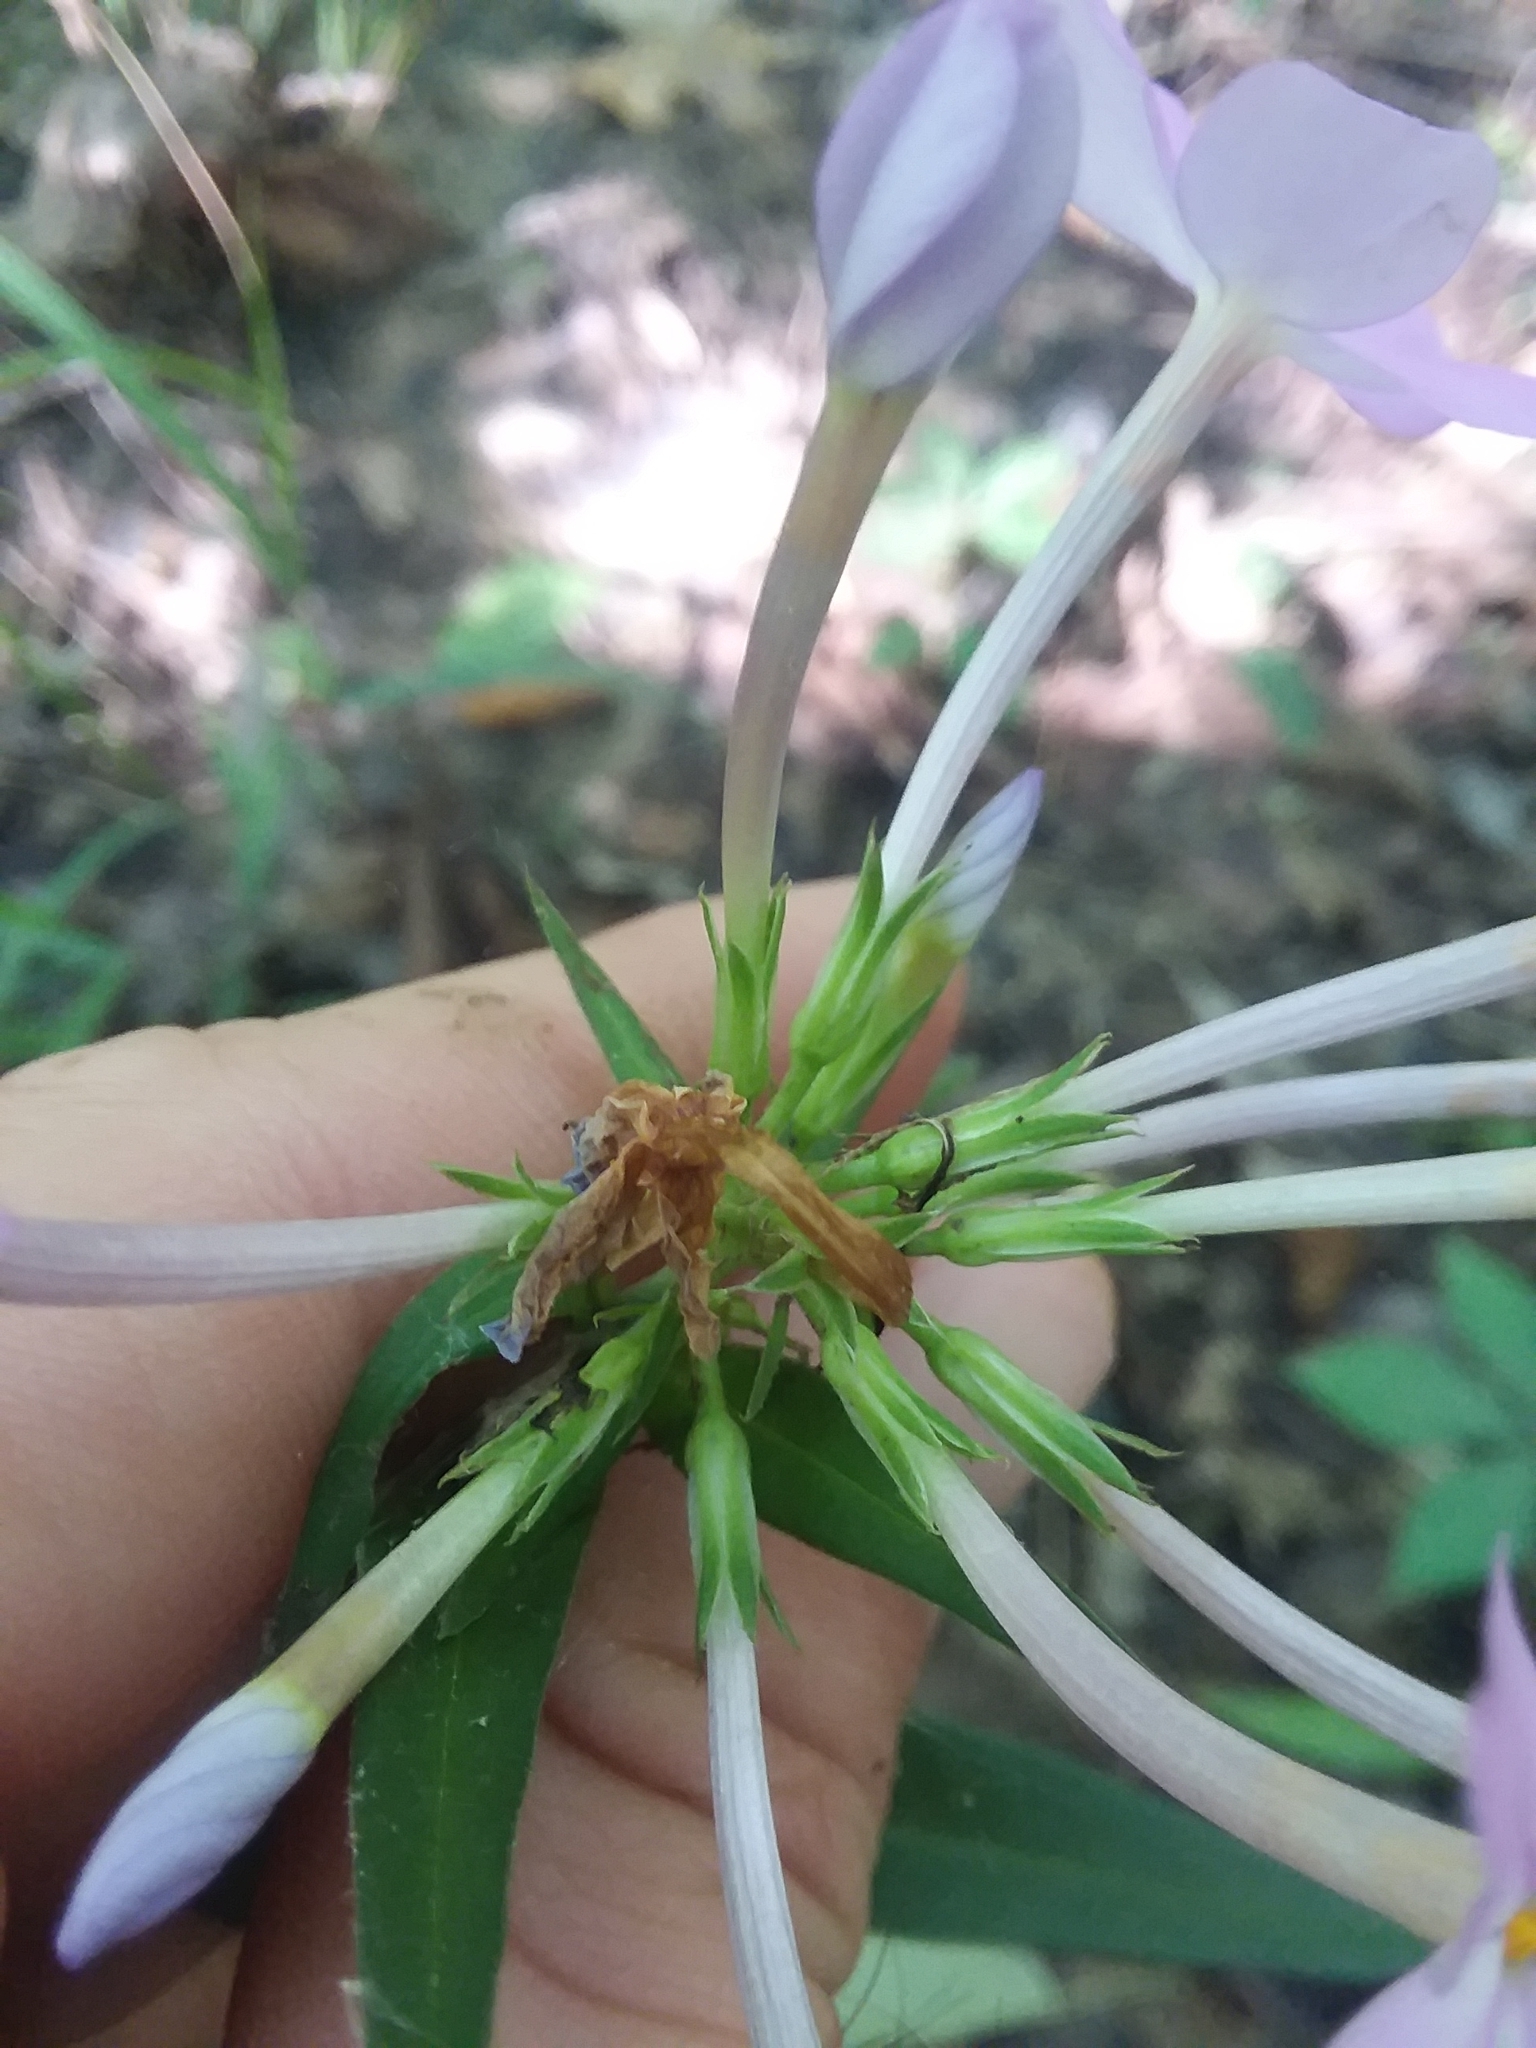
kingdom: Plantae
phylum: Tracheophyta
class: Magnoliopsida
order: Ericales
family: Polemoniaceae
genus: Phlox
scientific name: Phlox carolina
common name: Thick-leaf phlox
